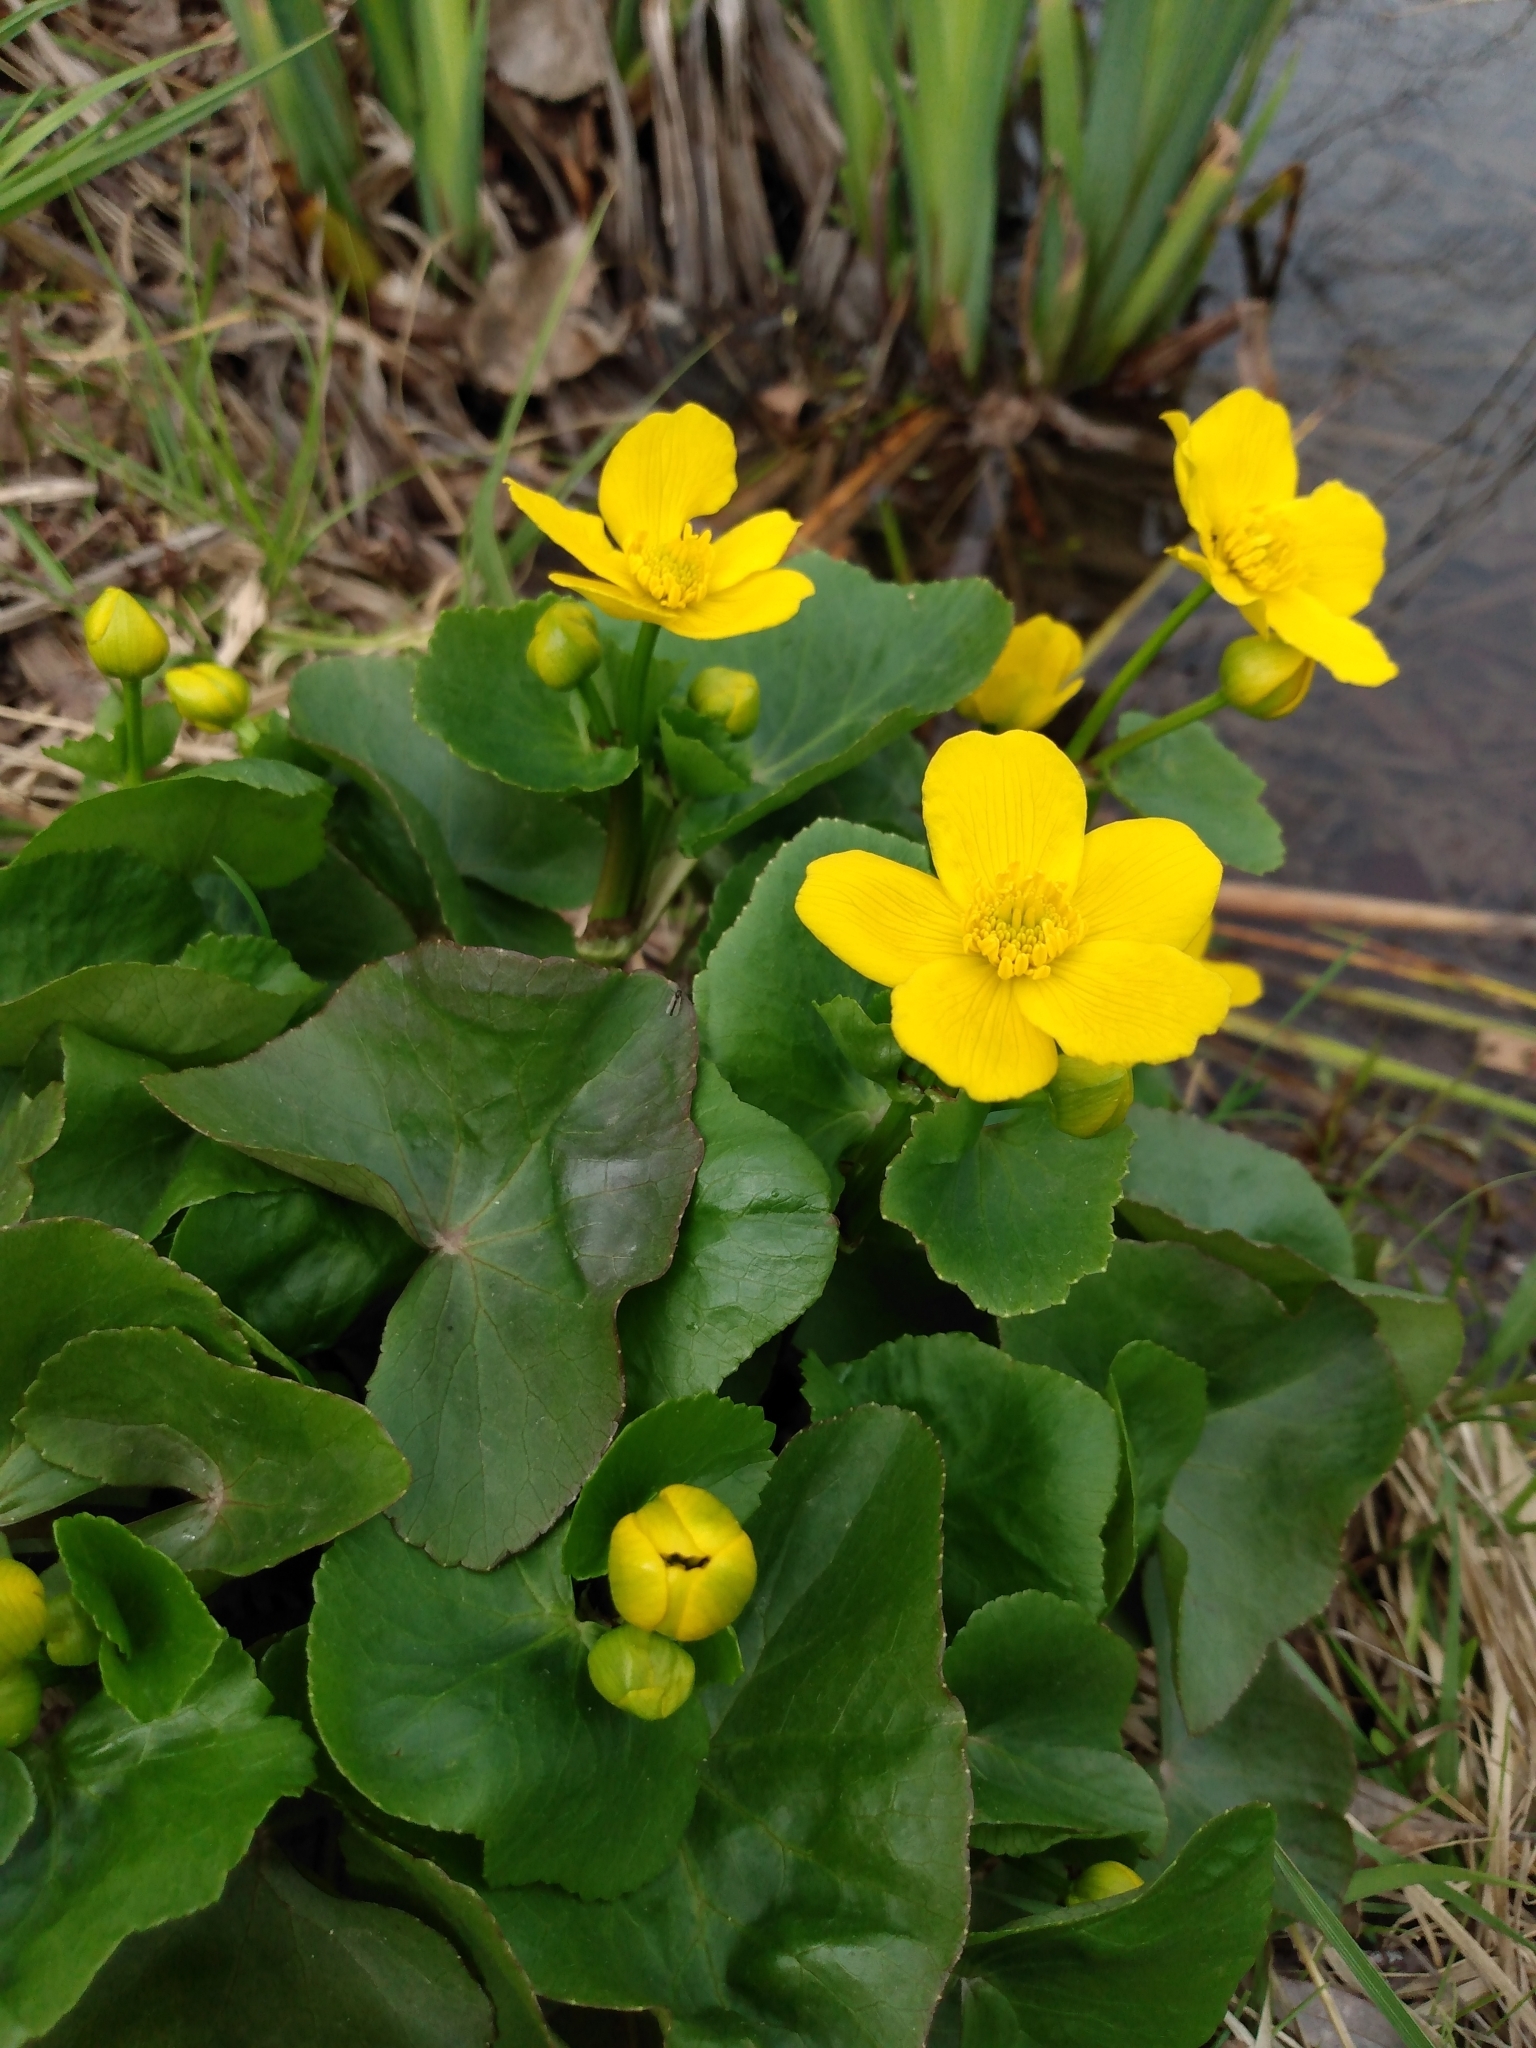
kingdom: Plantae
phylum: Tracheophyta
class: Magnoliopsida
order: Ranunculales
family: Ranunculaceae
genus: Caltha
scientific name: Caltha palustris
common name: Marsh marigold
